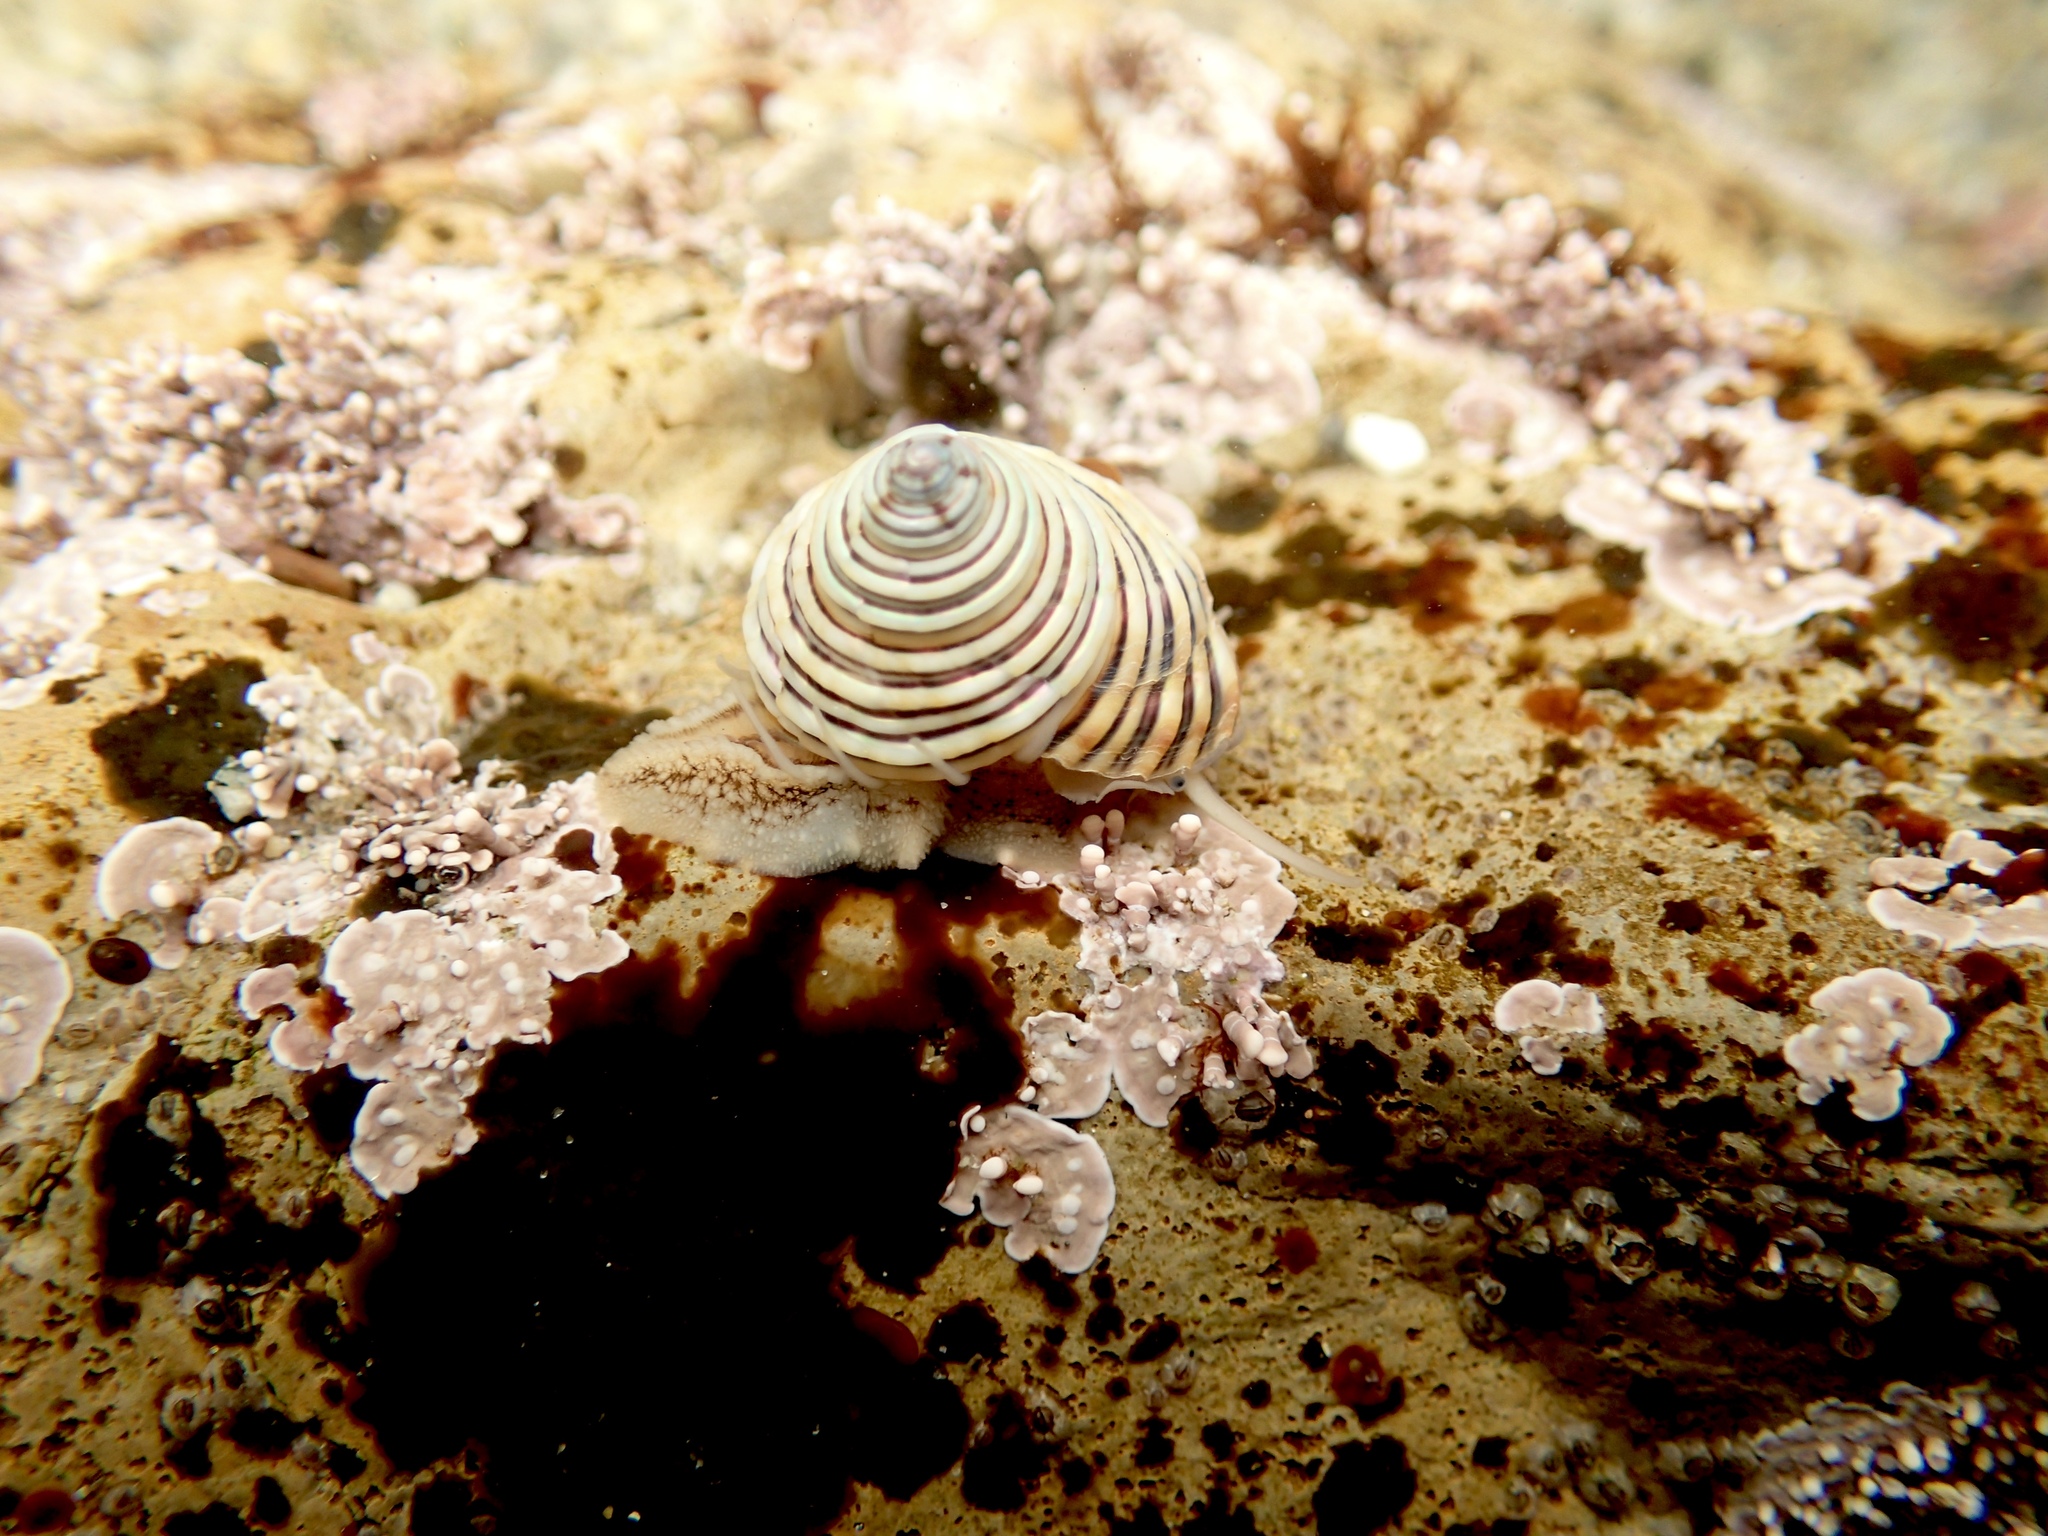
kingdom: Animalia
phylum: Mollusca
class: Gastropoda
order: Trochida
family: Calliostomatidae
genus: Calliostoma
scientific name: Calliostoma canaliculatum
